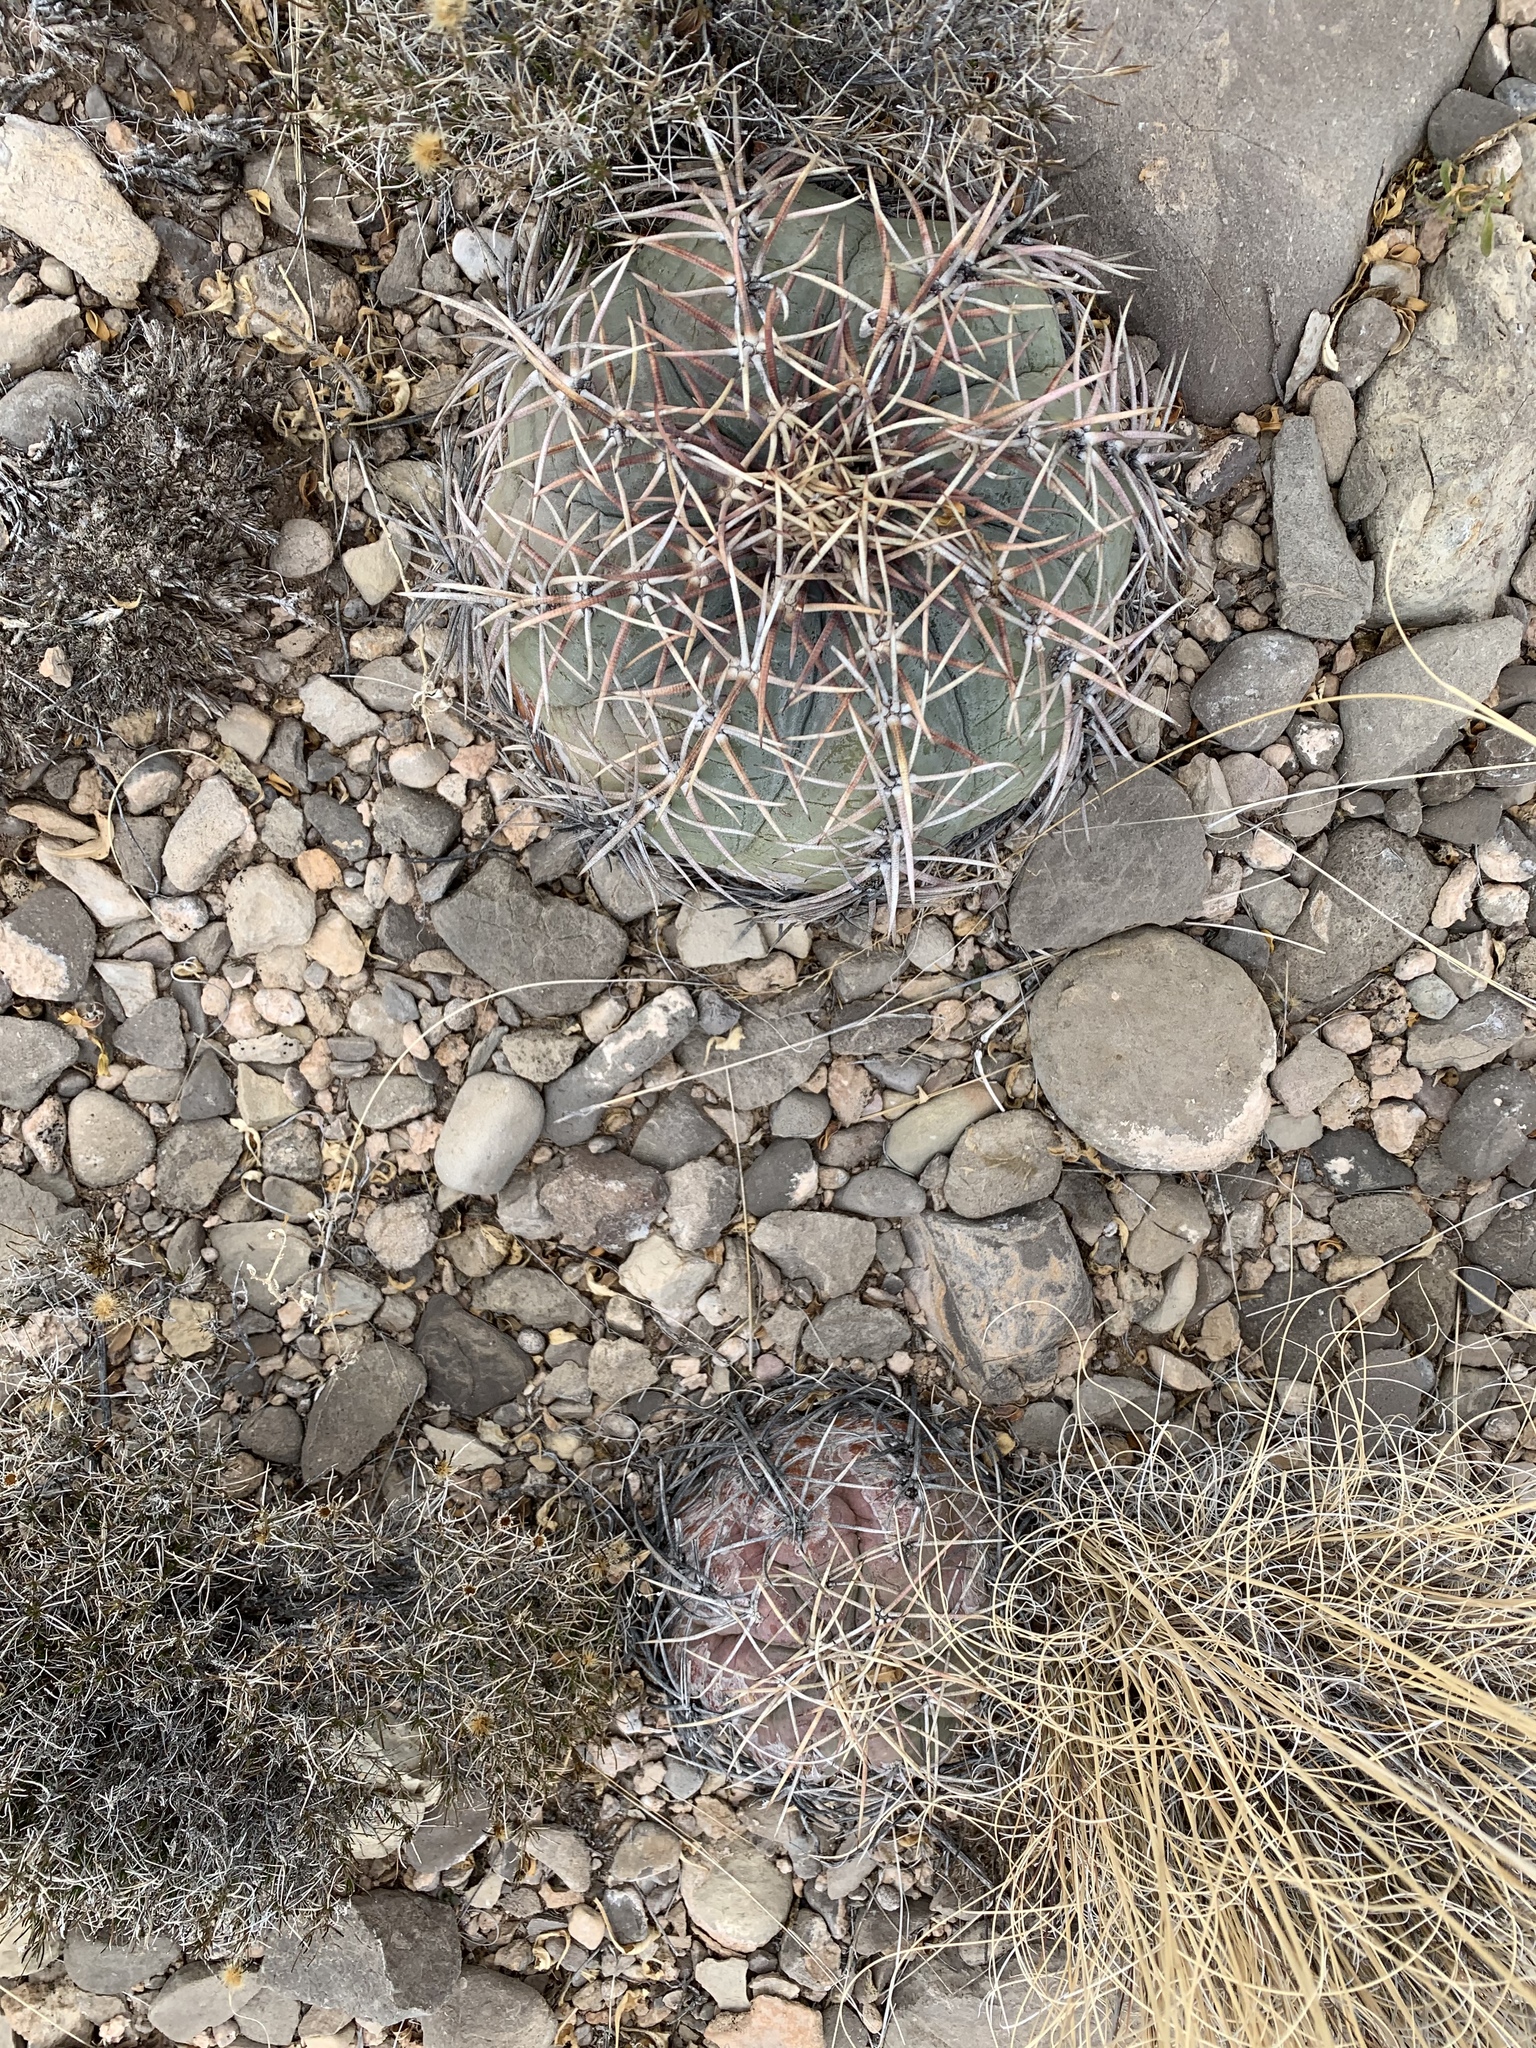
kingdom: Plantae
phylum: Tracheophyta
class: Magnoliopsida
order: Caryophyllales
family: Cactaceae
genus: Echinocactus
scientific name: Echinocactus horizonthalonius
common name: Devilshead
